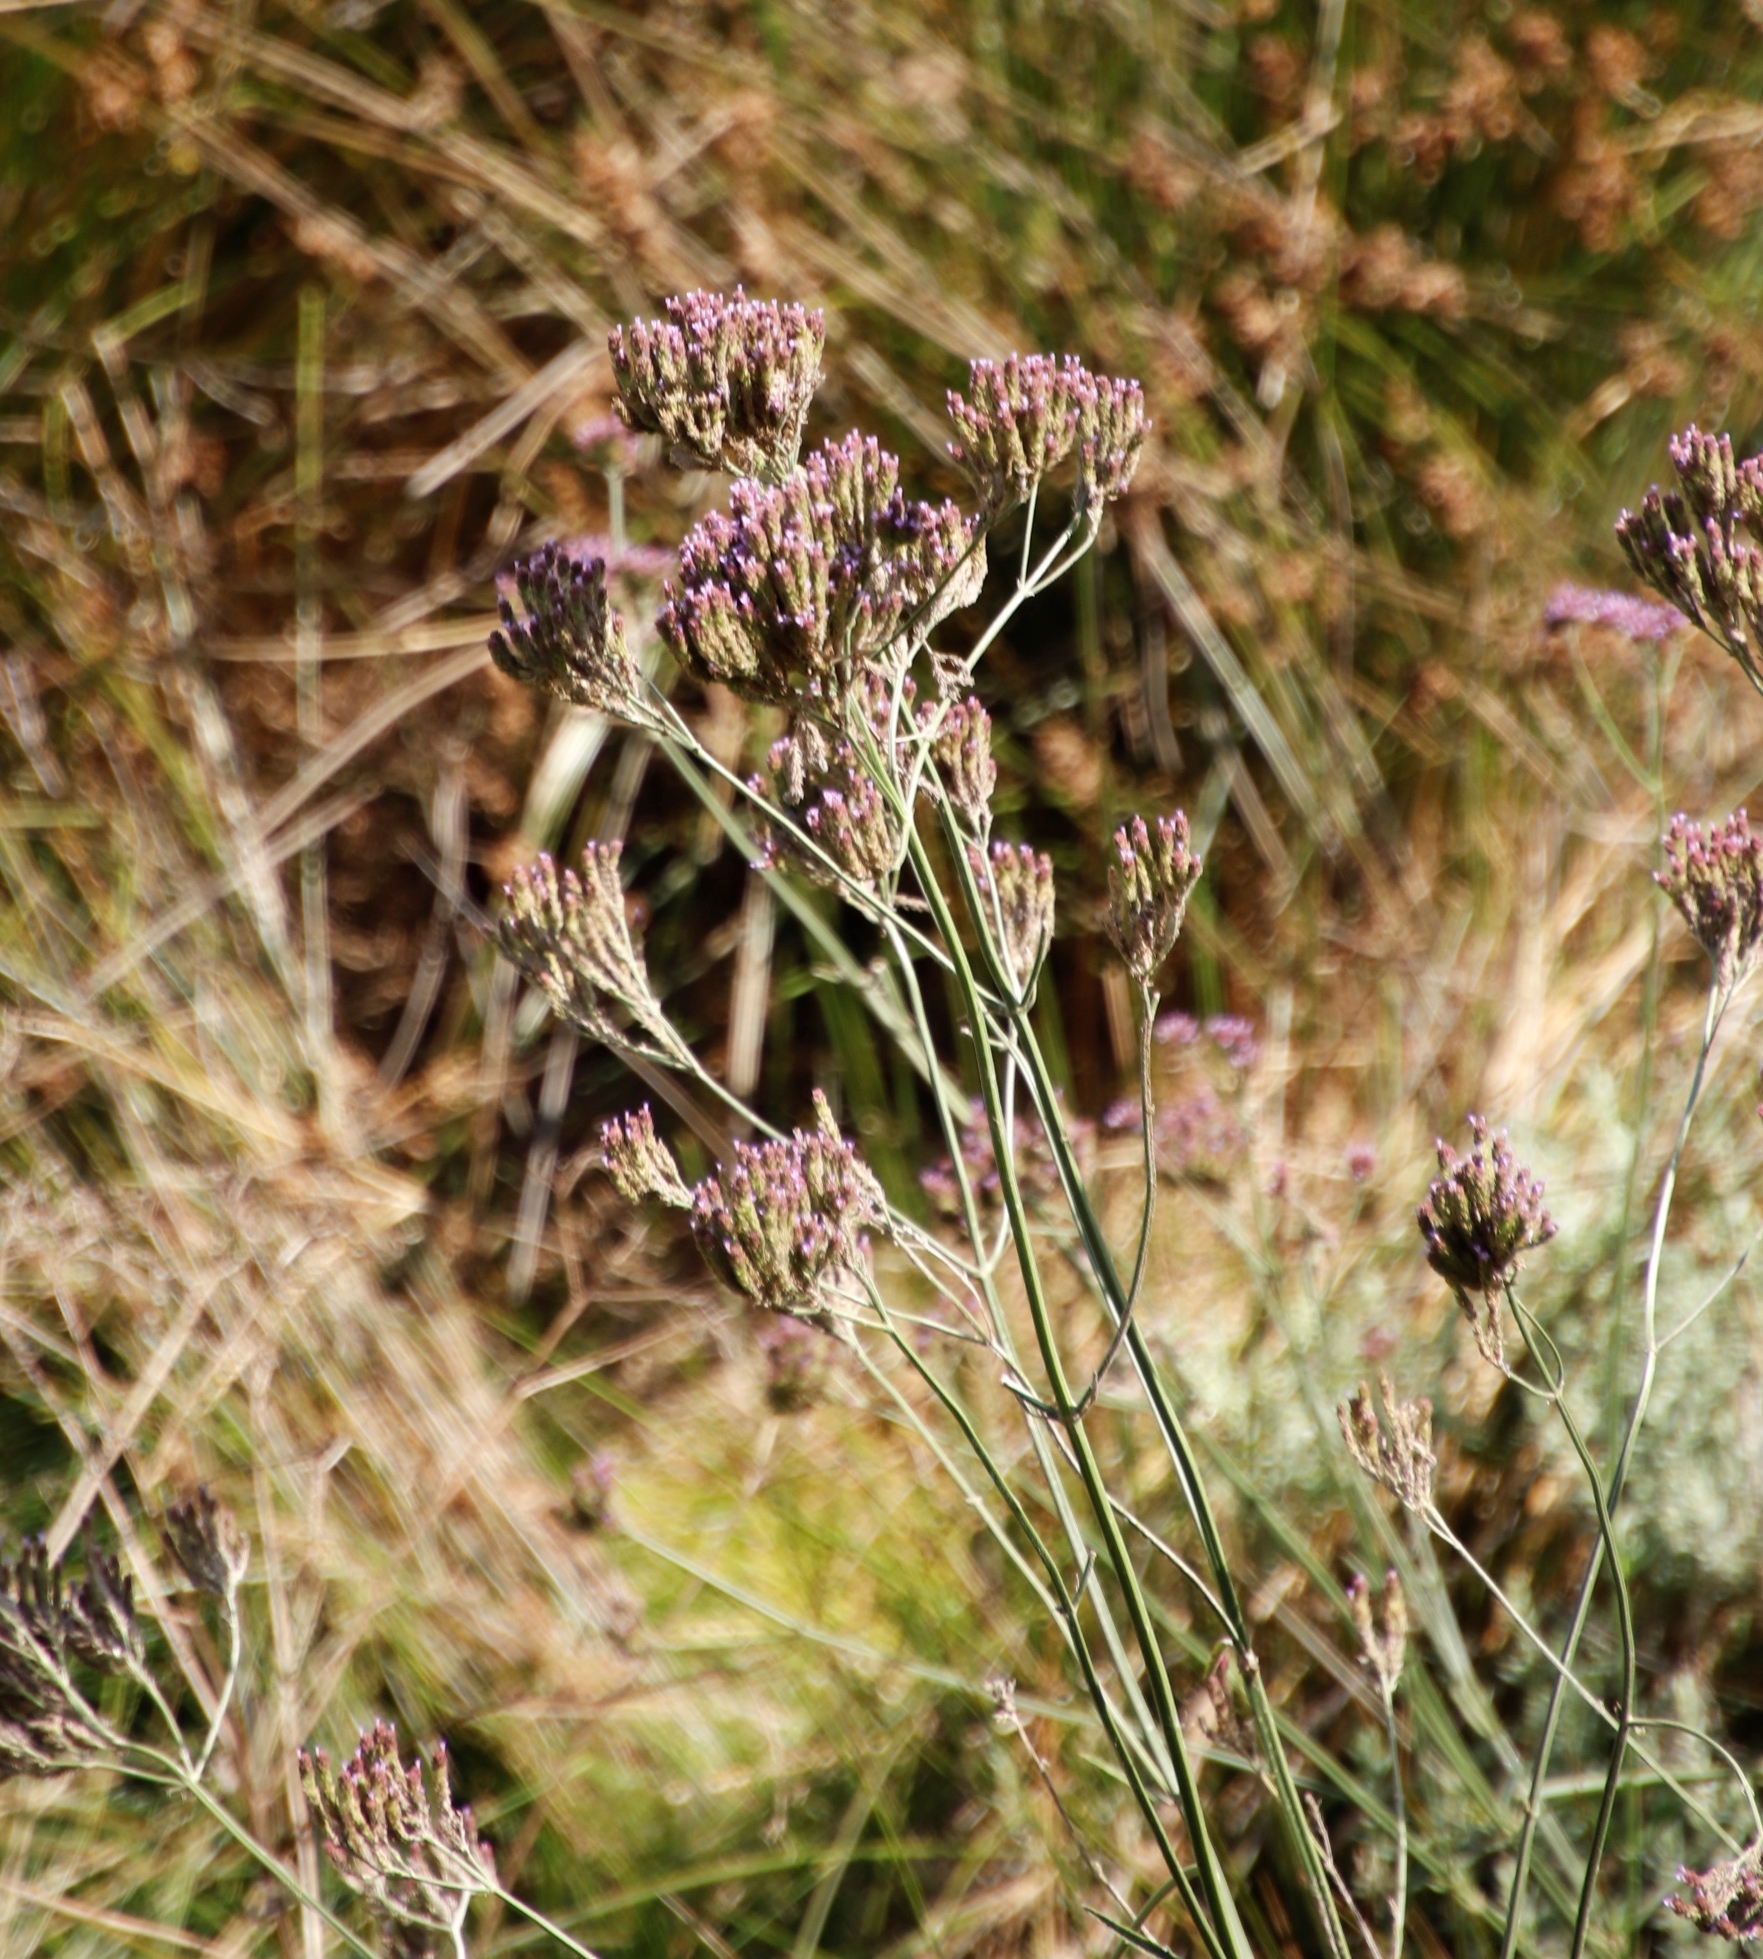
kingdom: Plantae
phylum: Tracheophyta
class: Magnoliopsida
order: Lamiales
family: Verbenaceae
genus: Verbena
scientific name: Verbena bonariensis
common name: Purpletop vervain
